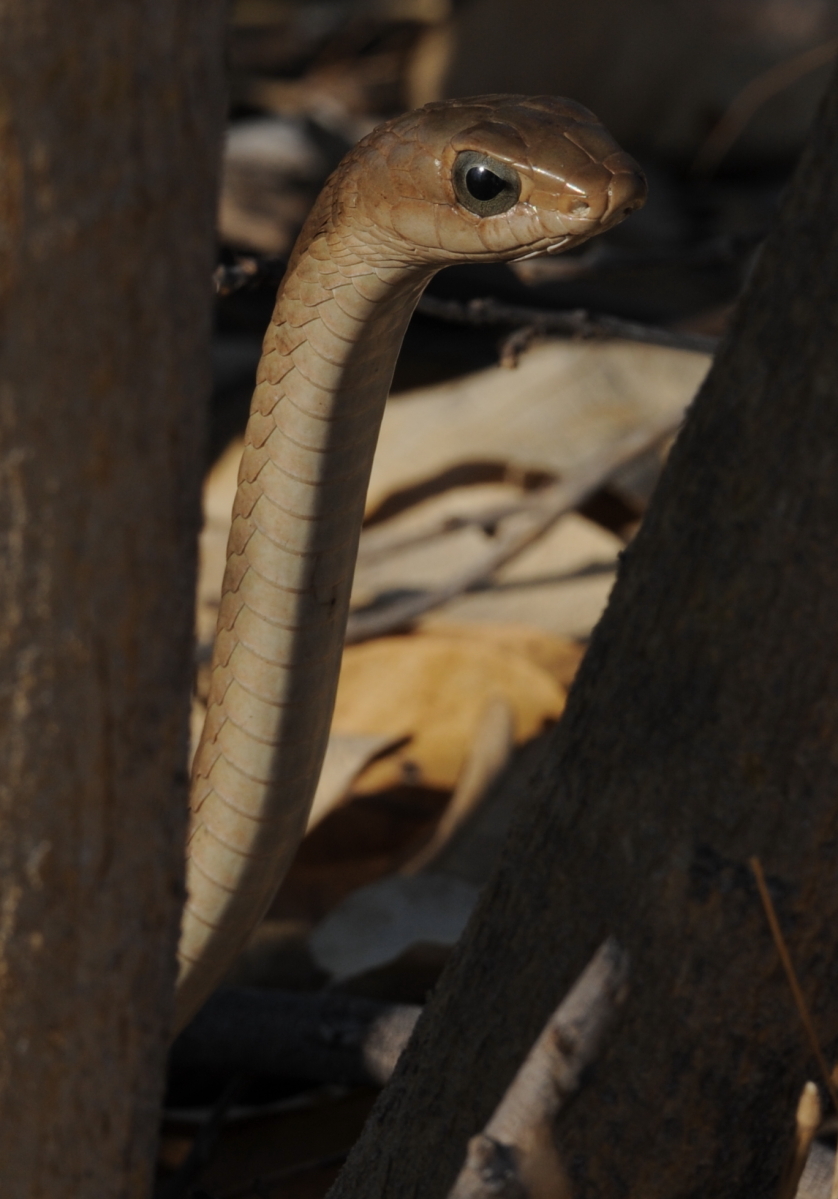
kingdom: Animalia
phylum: Chordata
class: Squamata
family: Colubridae
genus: Dispholidus
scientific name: Dispholidus typus
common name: Boomslang
